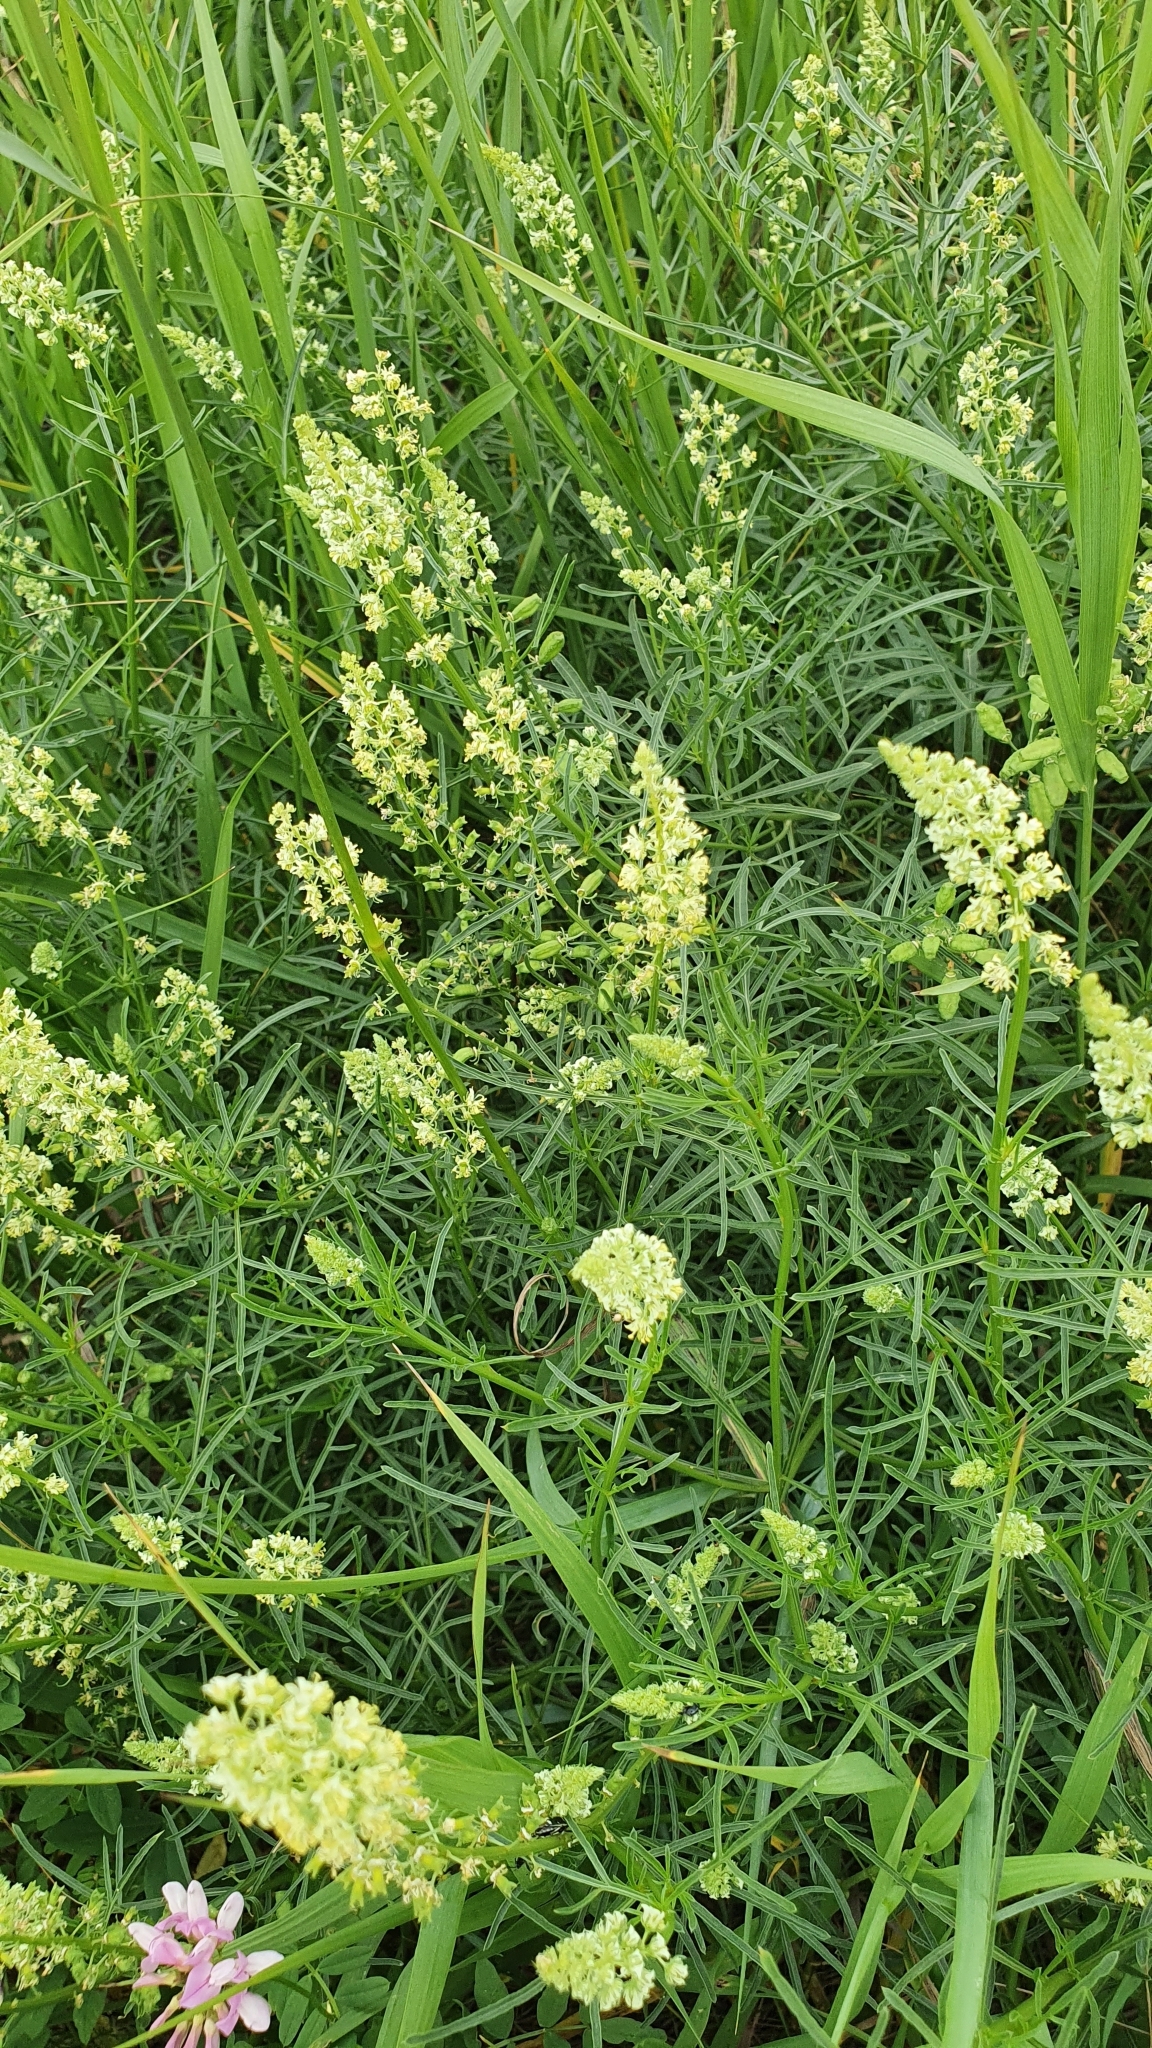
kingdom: Plantae
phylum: Tracheophyta
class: Magnoliopsida
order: Brassicales
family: Resedaceae
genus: Reseda
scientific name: Reseda lutea
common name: Wild mignonette
